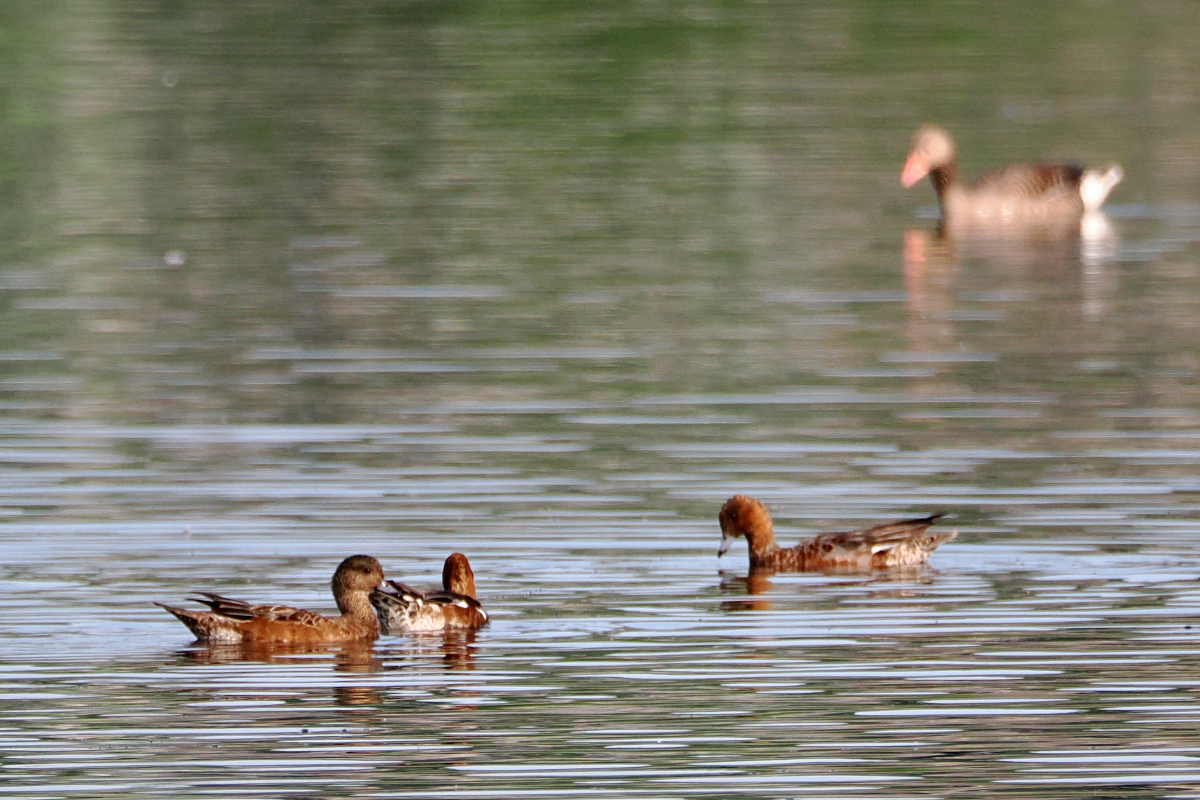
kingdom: Animalia
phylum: Chordata
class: Aves
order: Anseriformes
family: Anatidae
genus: Mareca
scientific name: Mareca penelope
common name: Eurasian wigeon
